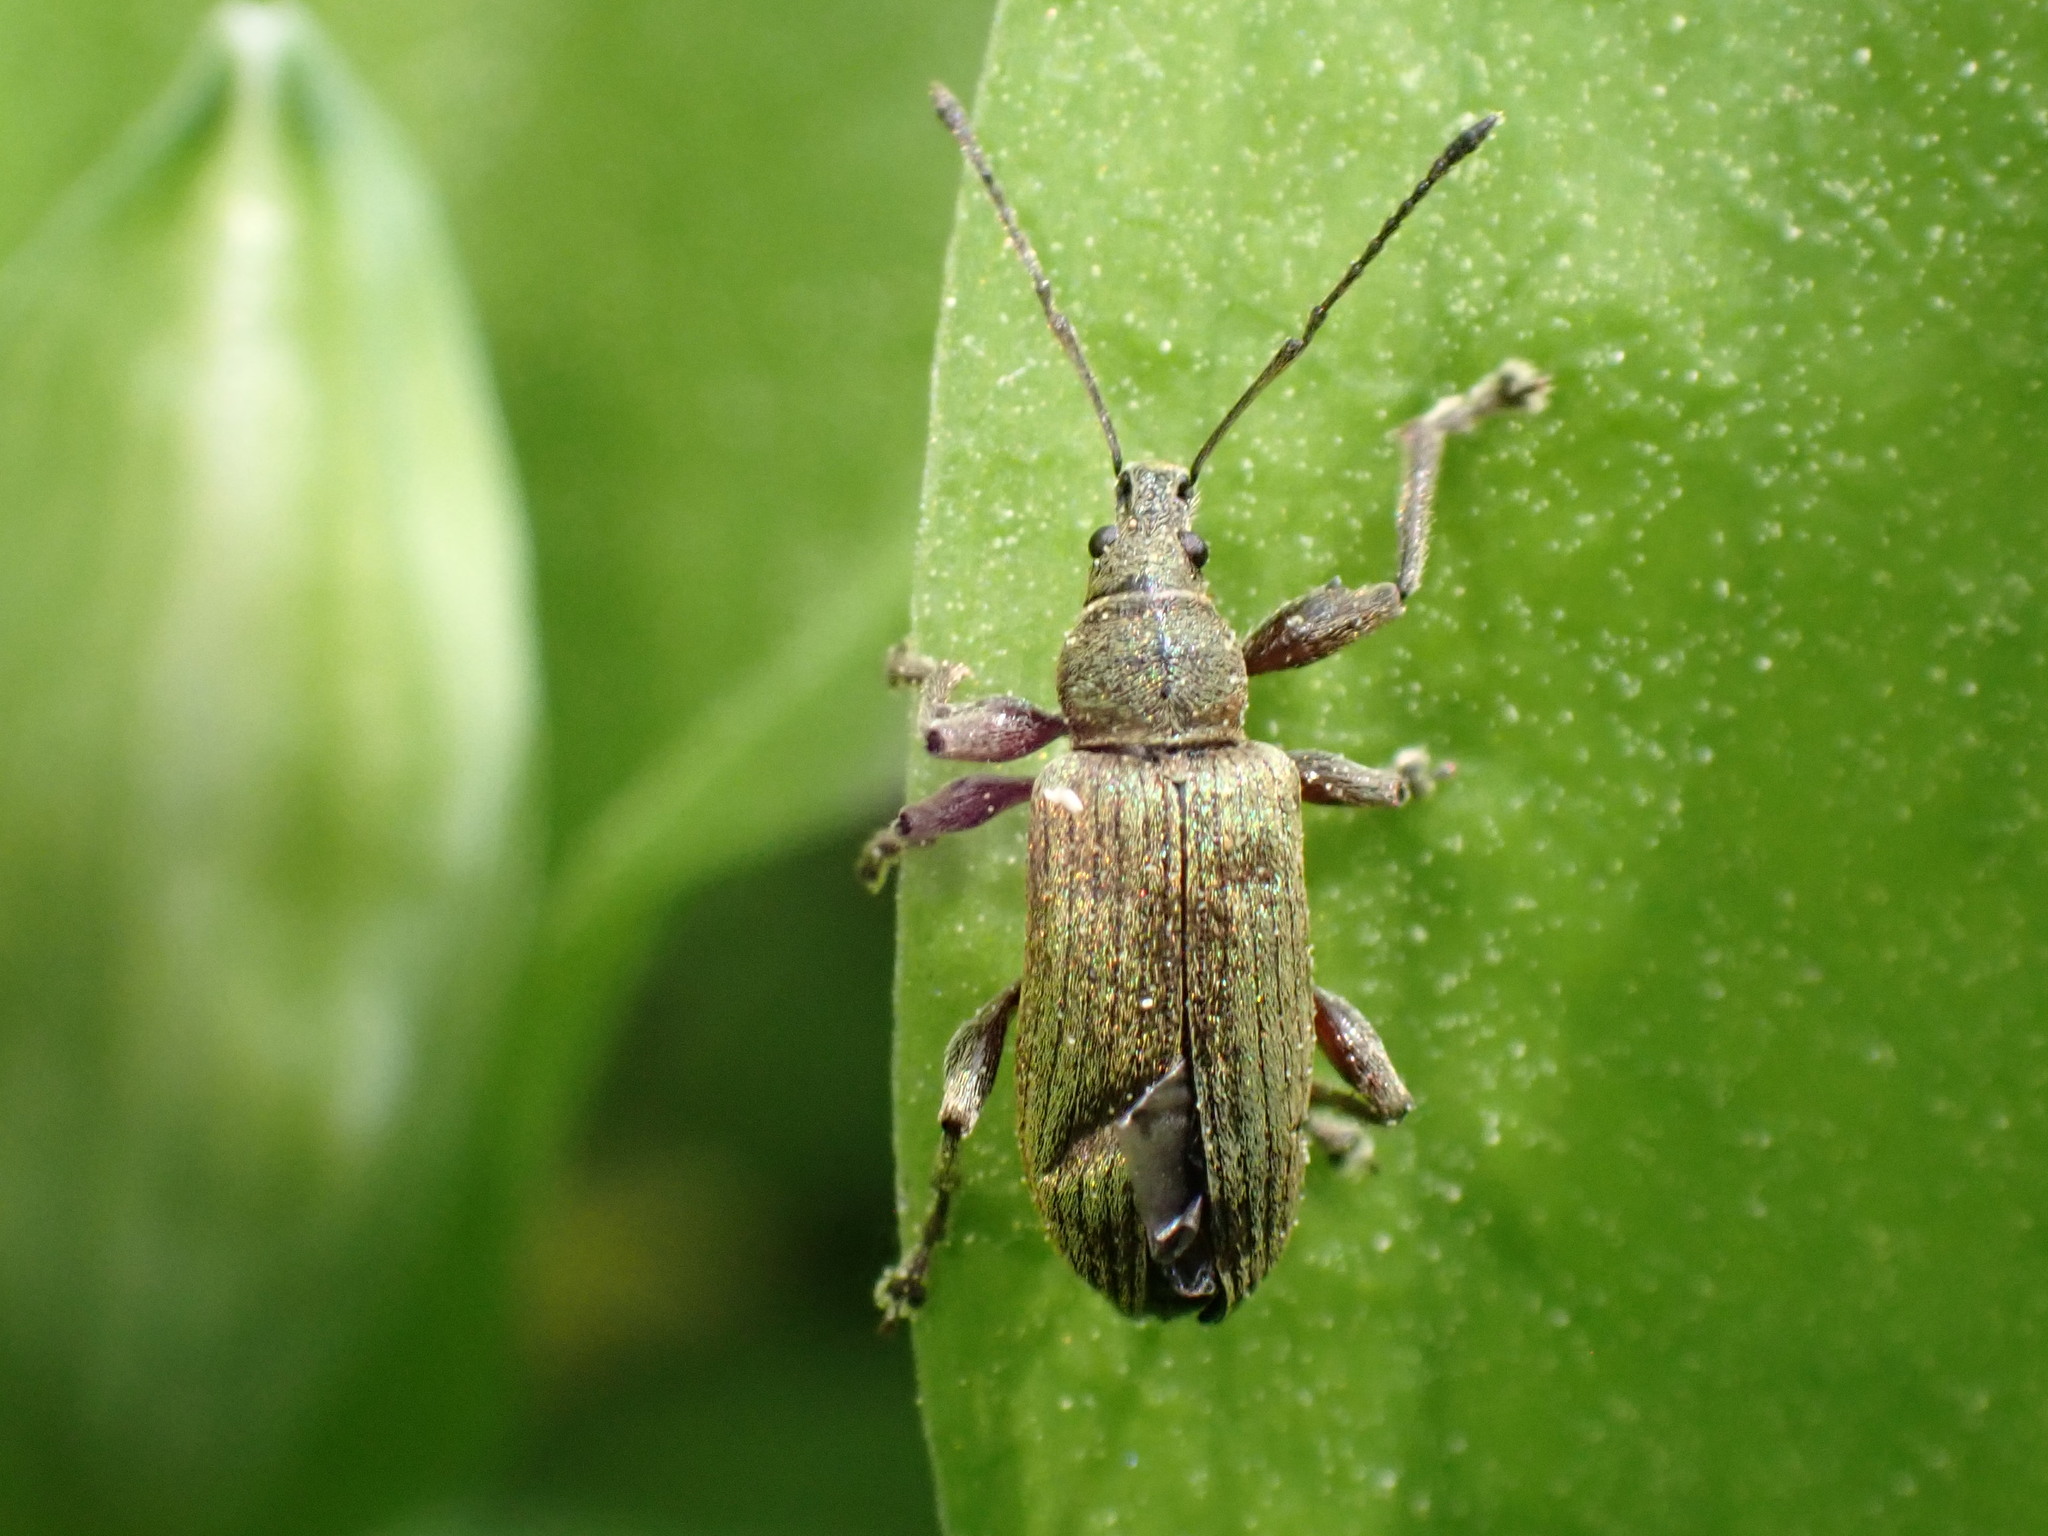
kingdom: Animalia
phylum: Arthropoda
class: Insecta
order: Coleoptera
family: Curculionidae
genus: Phyllobius
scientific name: Phyllobius glaucus
